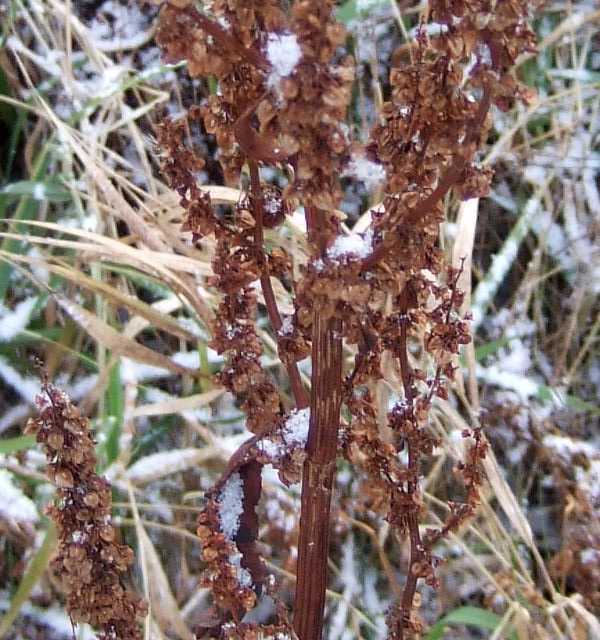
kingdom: Plantae
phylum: Tracheophyta
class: Magnoliopsida
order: Caryophyllales
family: Polygonaceae
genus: Rumex
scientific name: Rumex crispus
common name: Curled dock
